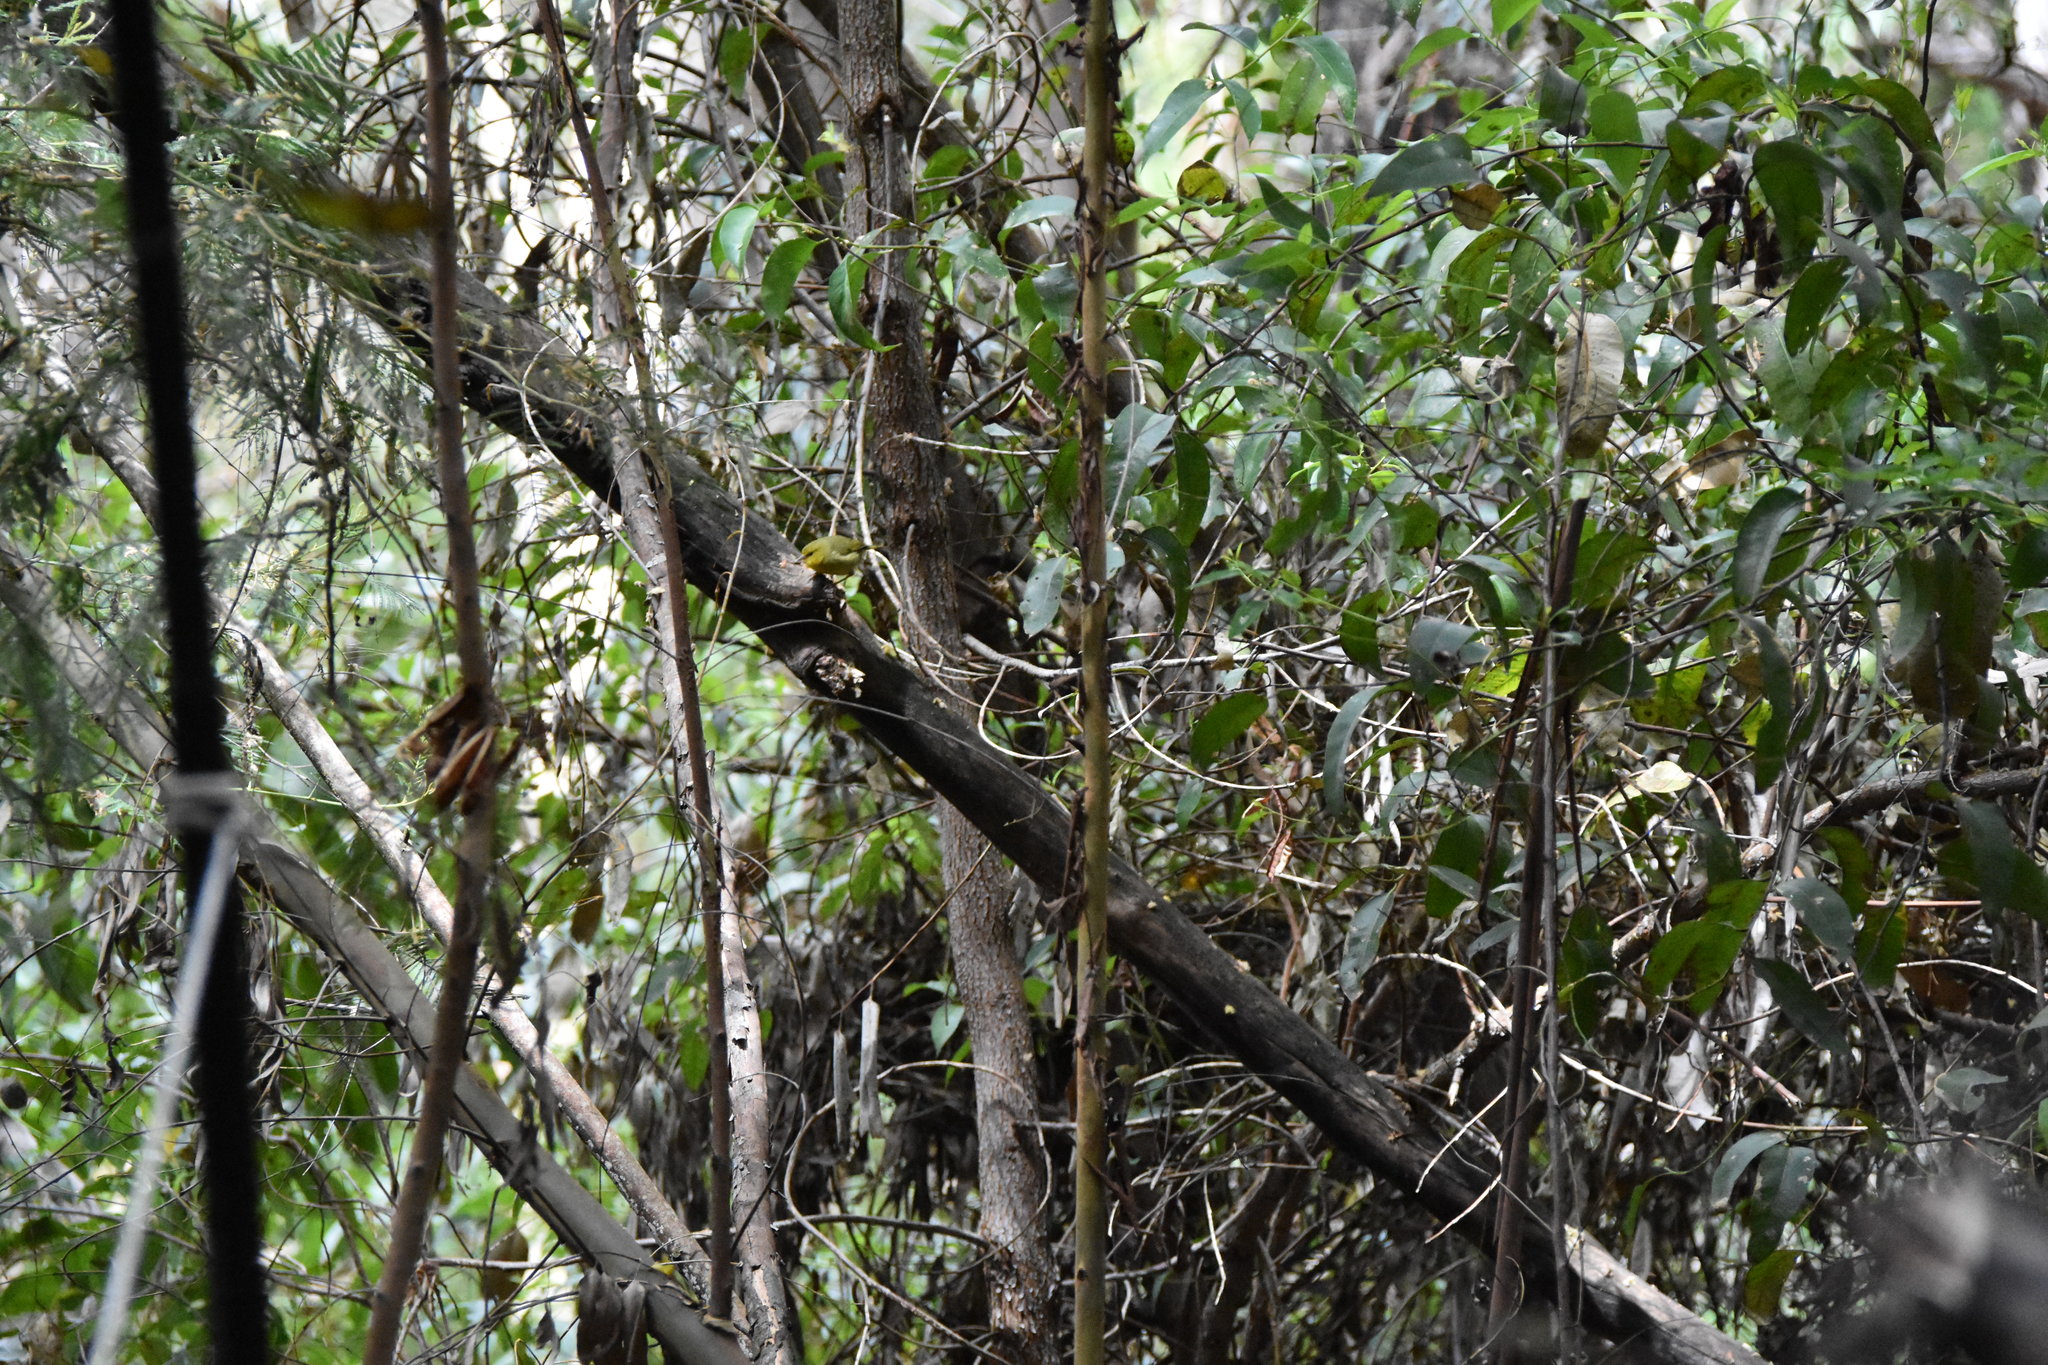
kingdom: Animalia
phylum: Chordata
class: Aves
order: Passeriformes
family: Fringillidae
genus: Paroreomyza
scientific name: Paroreomyza montana
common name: Maui alauahio
